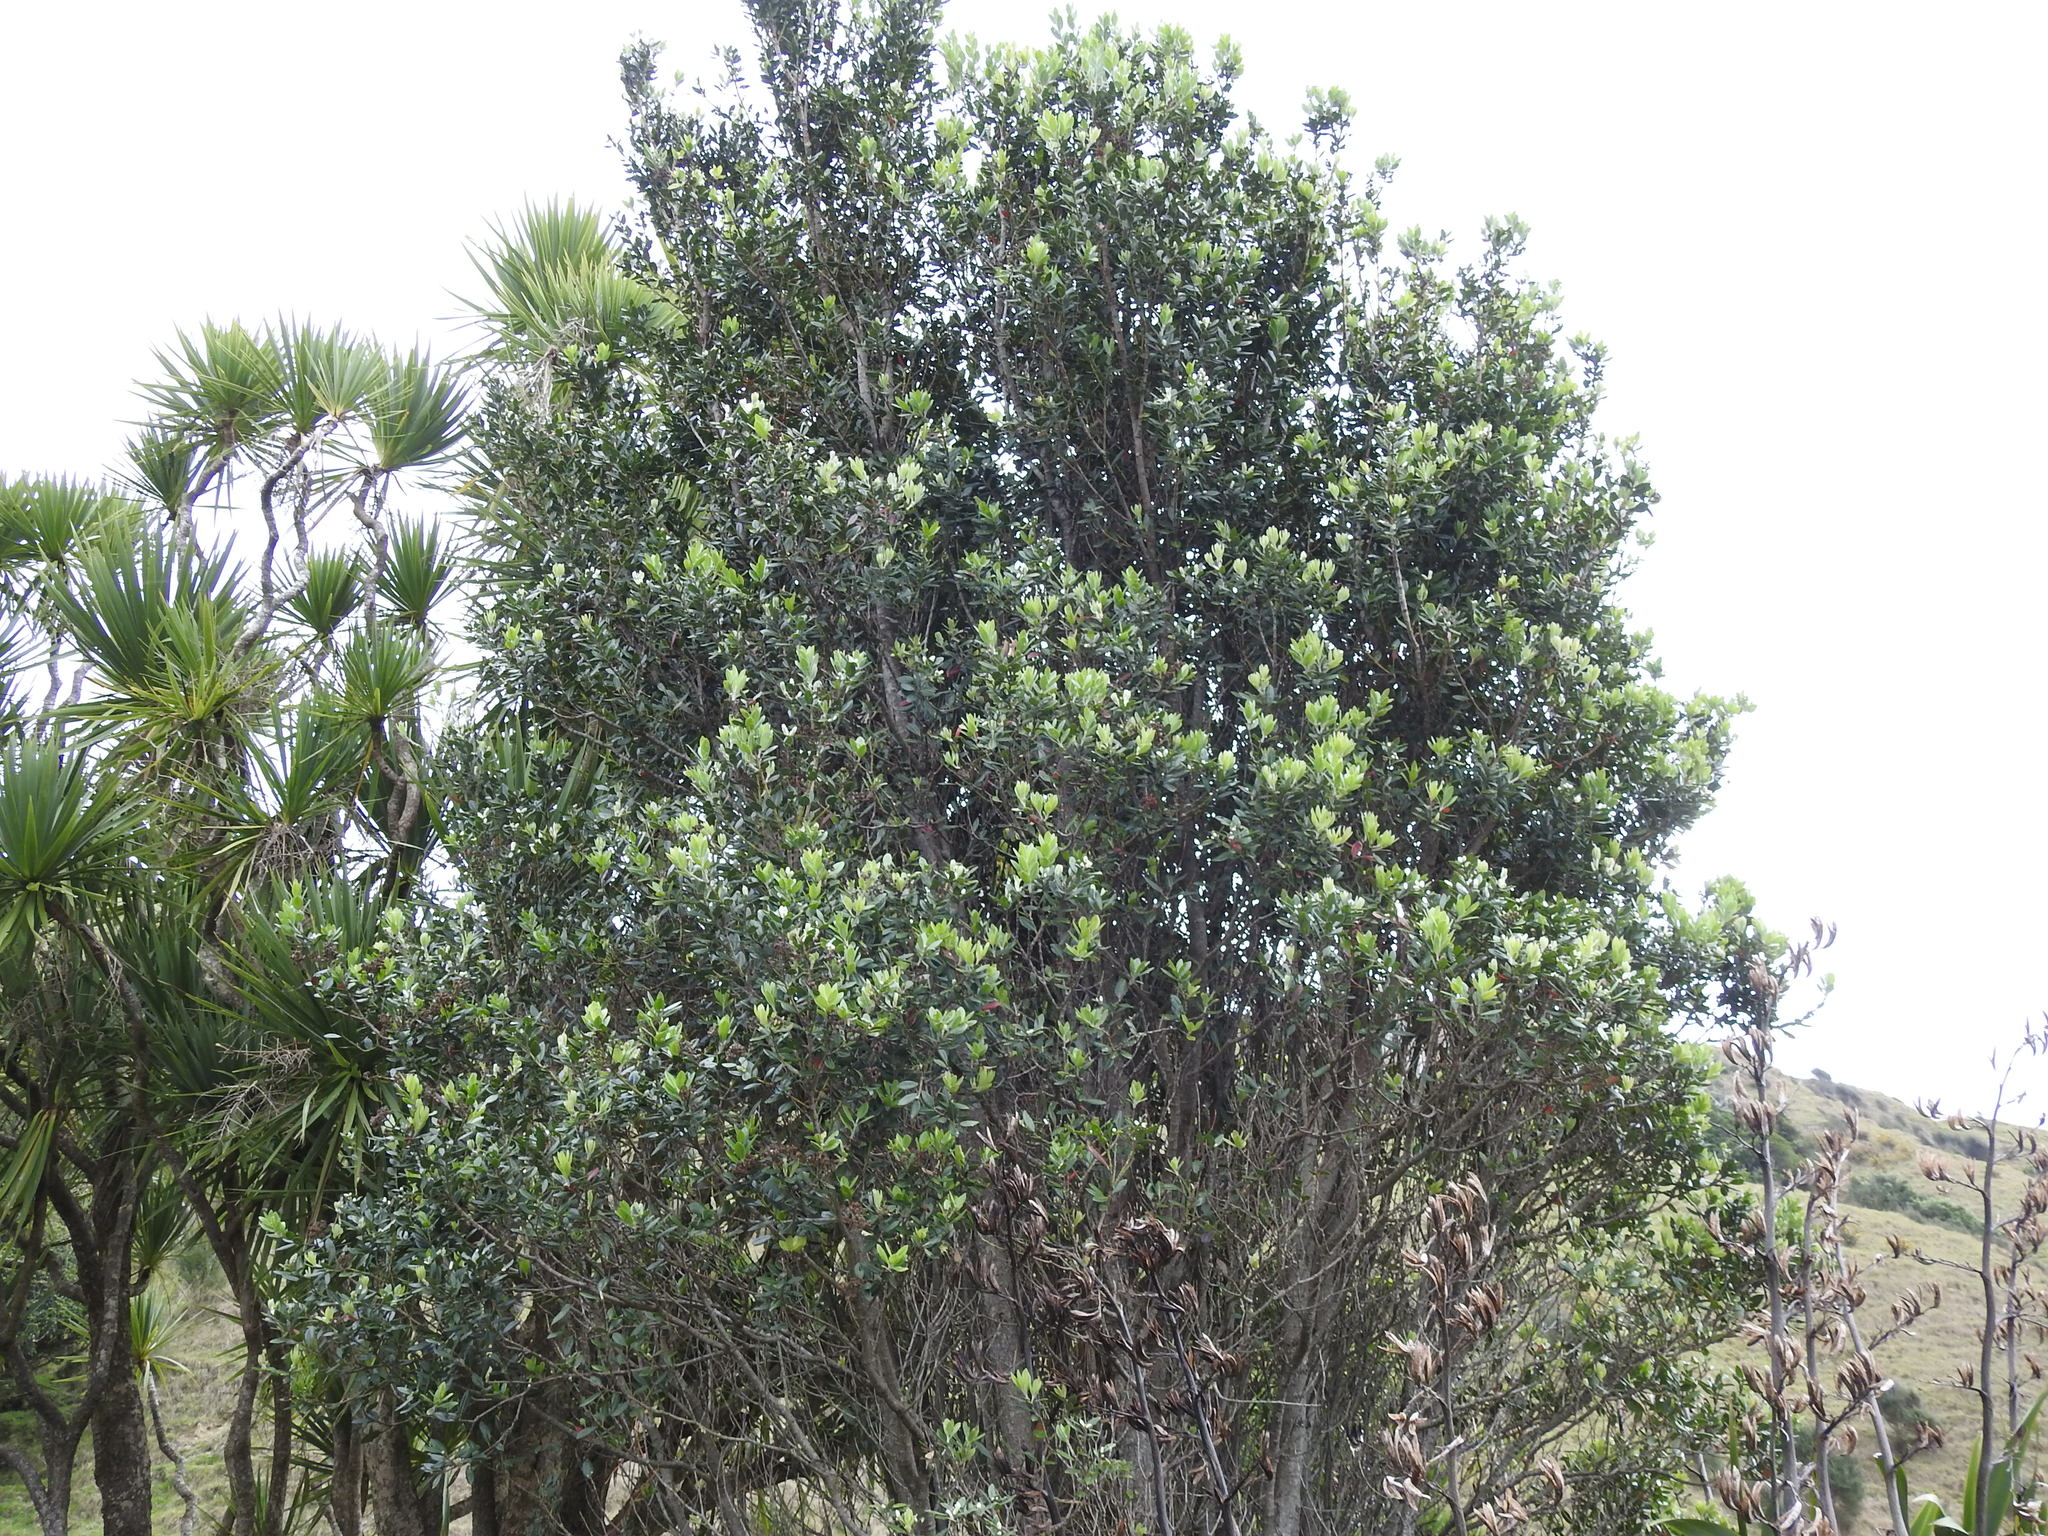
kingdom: Plantae
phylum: Tracheophyta
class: Magnoliopsida
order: Myrtales
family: Myrtaceae
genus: Metrosideros
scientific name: Metrosideros excelsa
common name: New zealand christmastree
